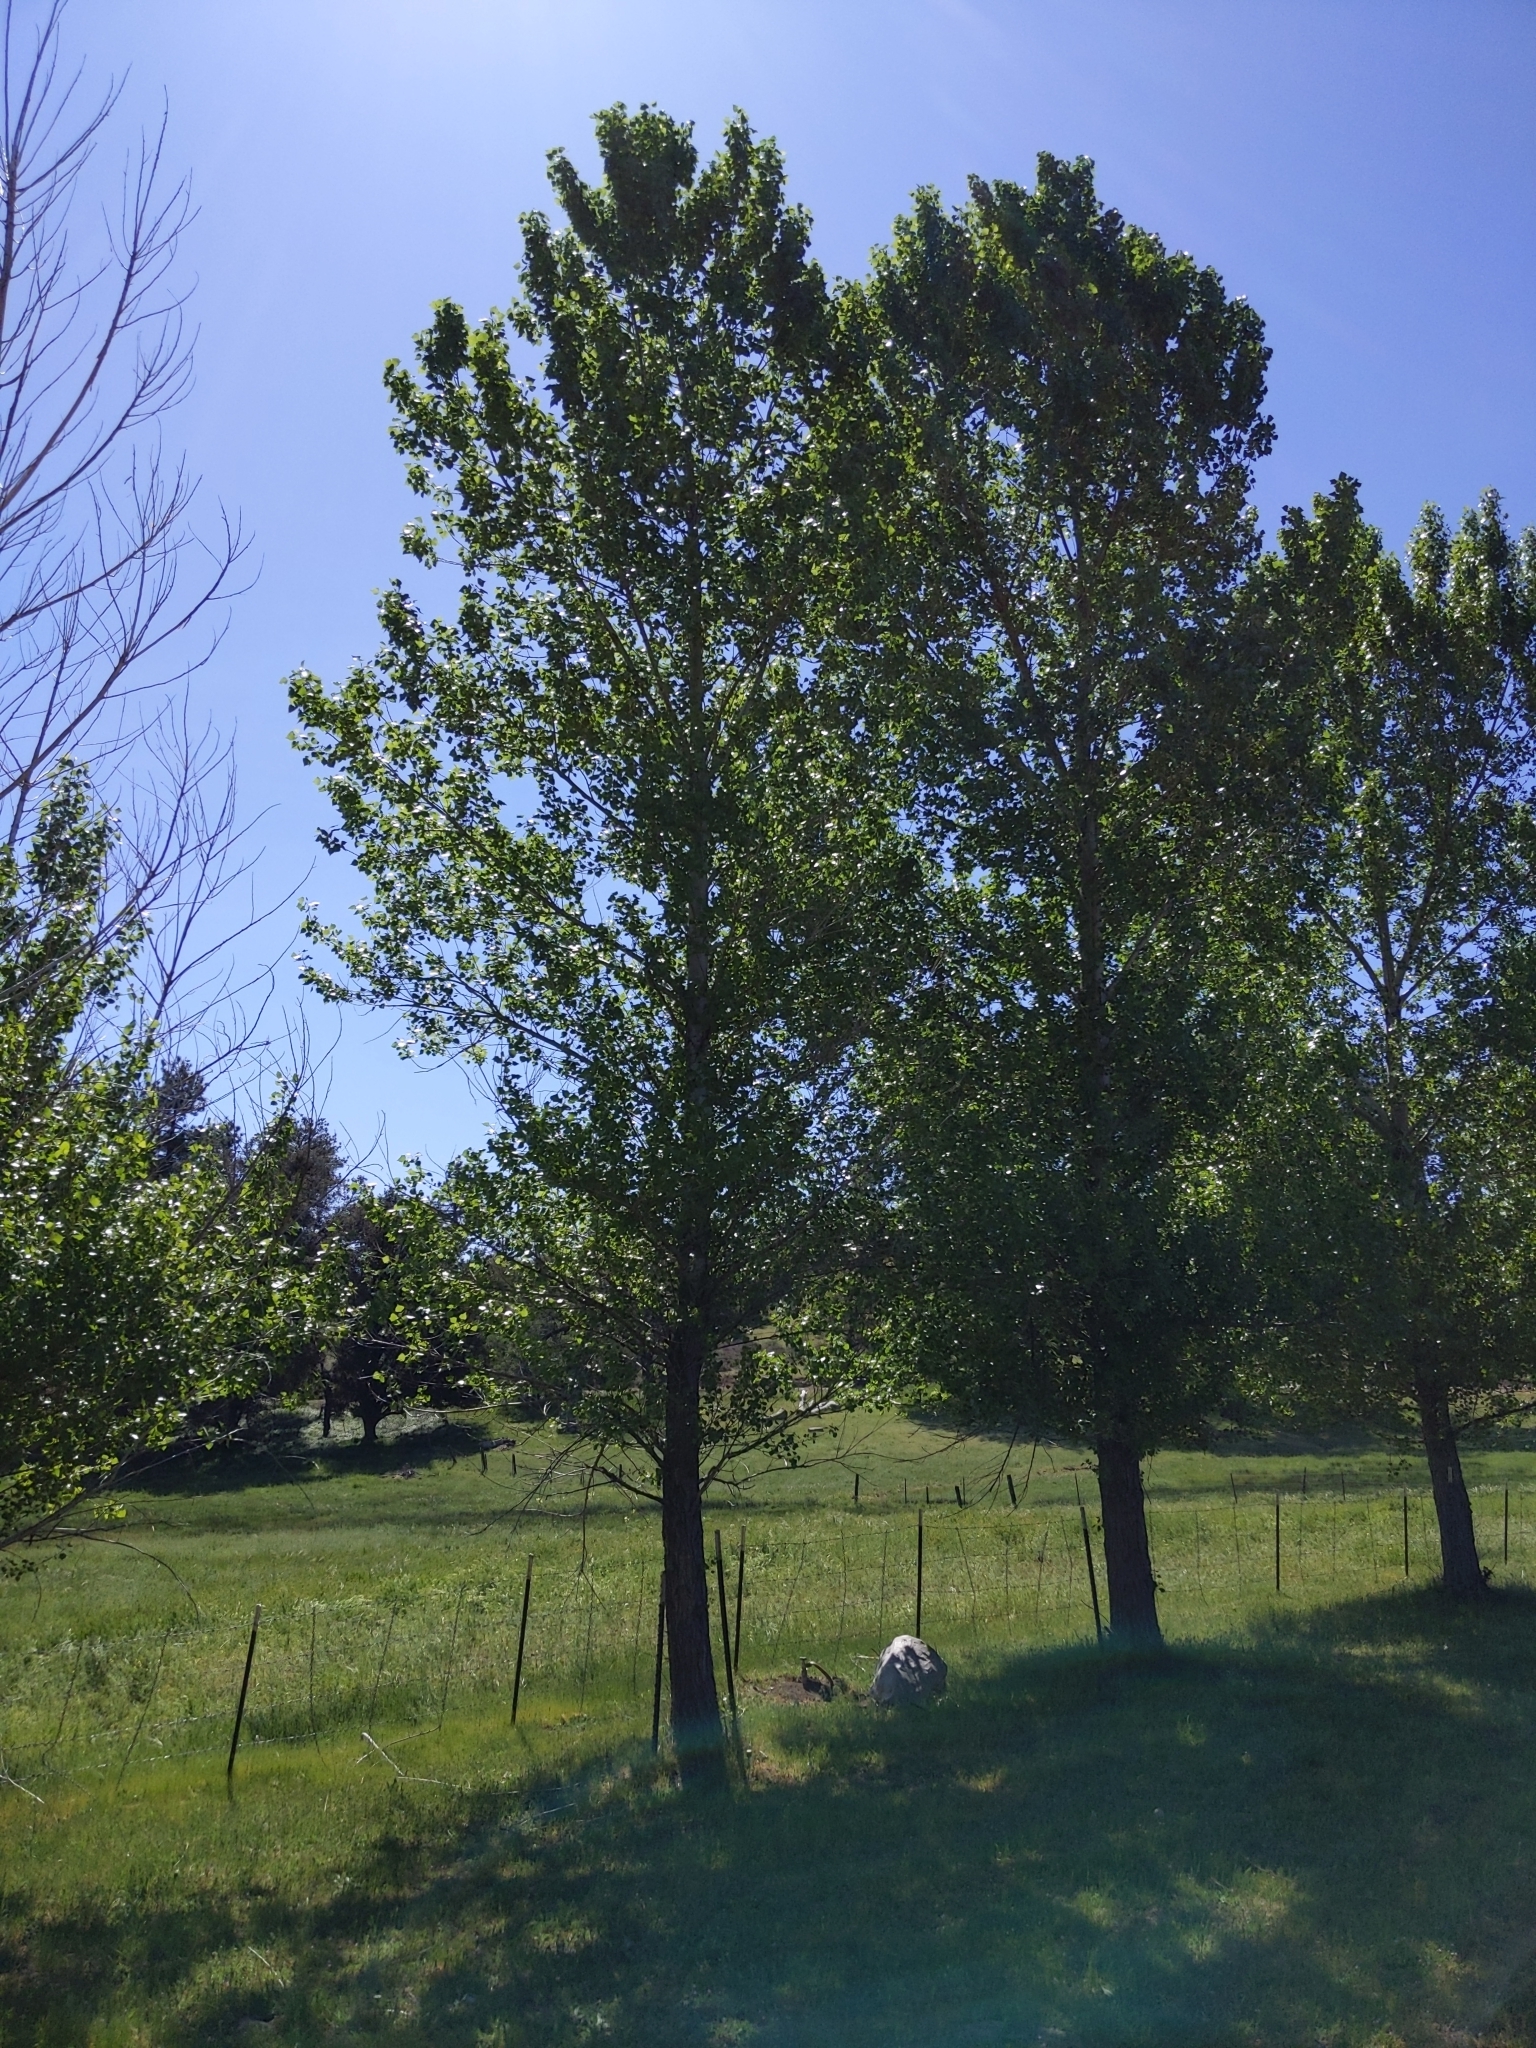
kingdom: Plantae
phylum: Tracheophyta
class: Magnoliopsida
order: Malpighiales
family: Salicaceae
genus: Populus
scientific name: Populus fremontii
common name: Fremont's cottonwood
